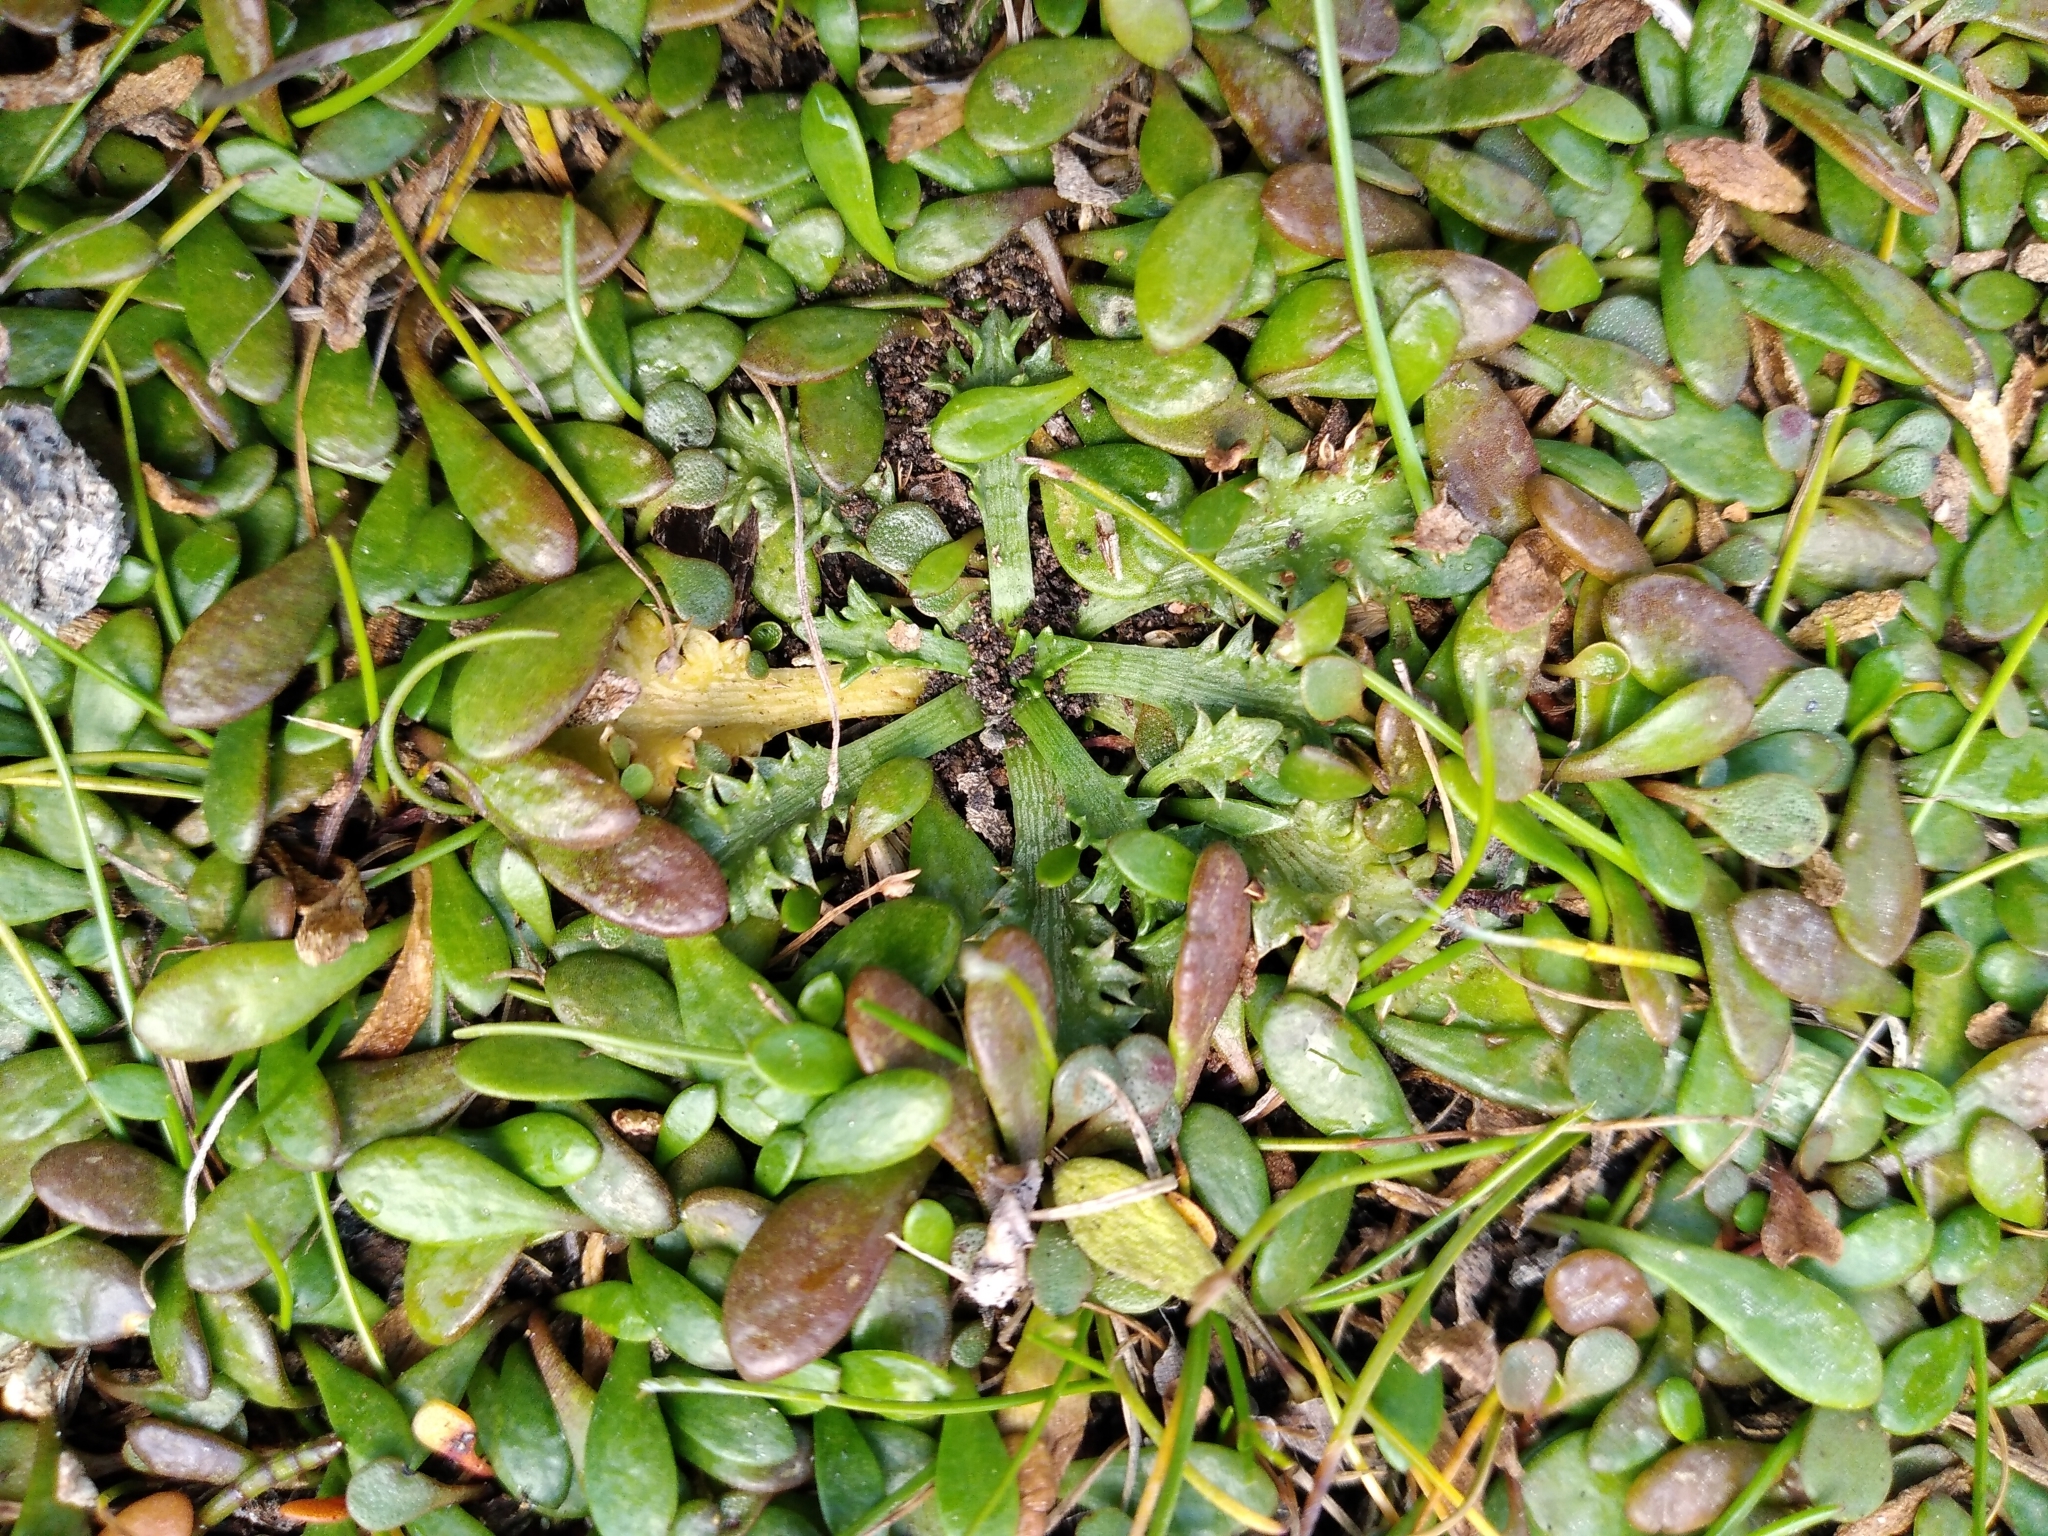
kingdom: Plantae
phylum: Tracheophyta
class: Magnoliopsida
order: Apiales
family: Apiaceae
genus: Eryngium
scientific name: Eryngium vesiculosum
